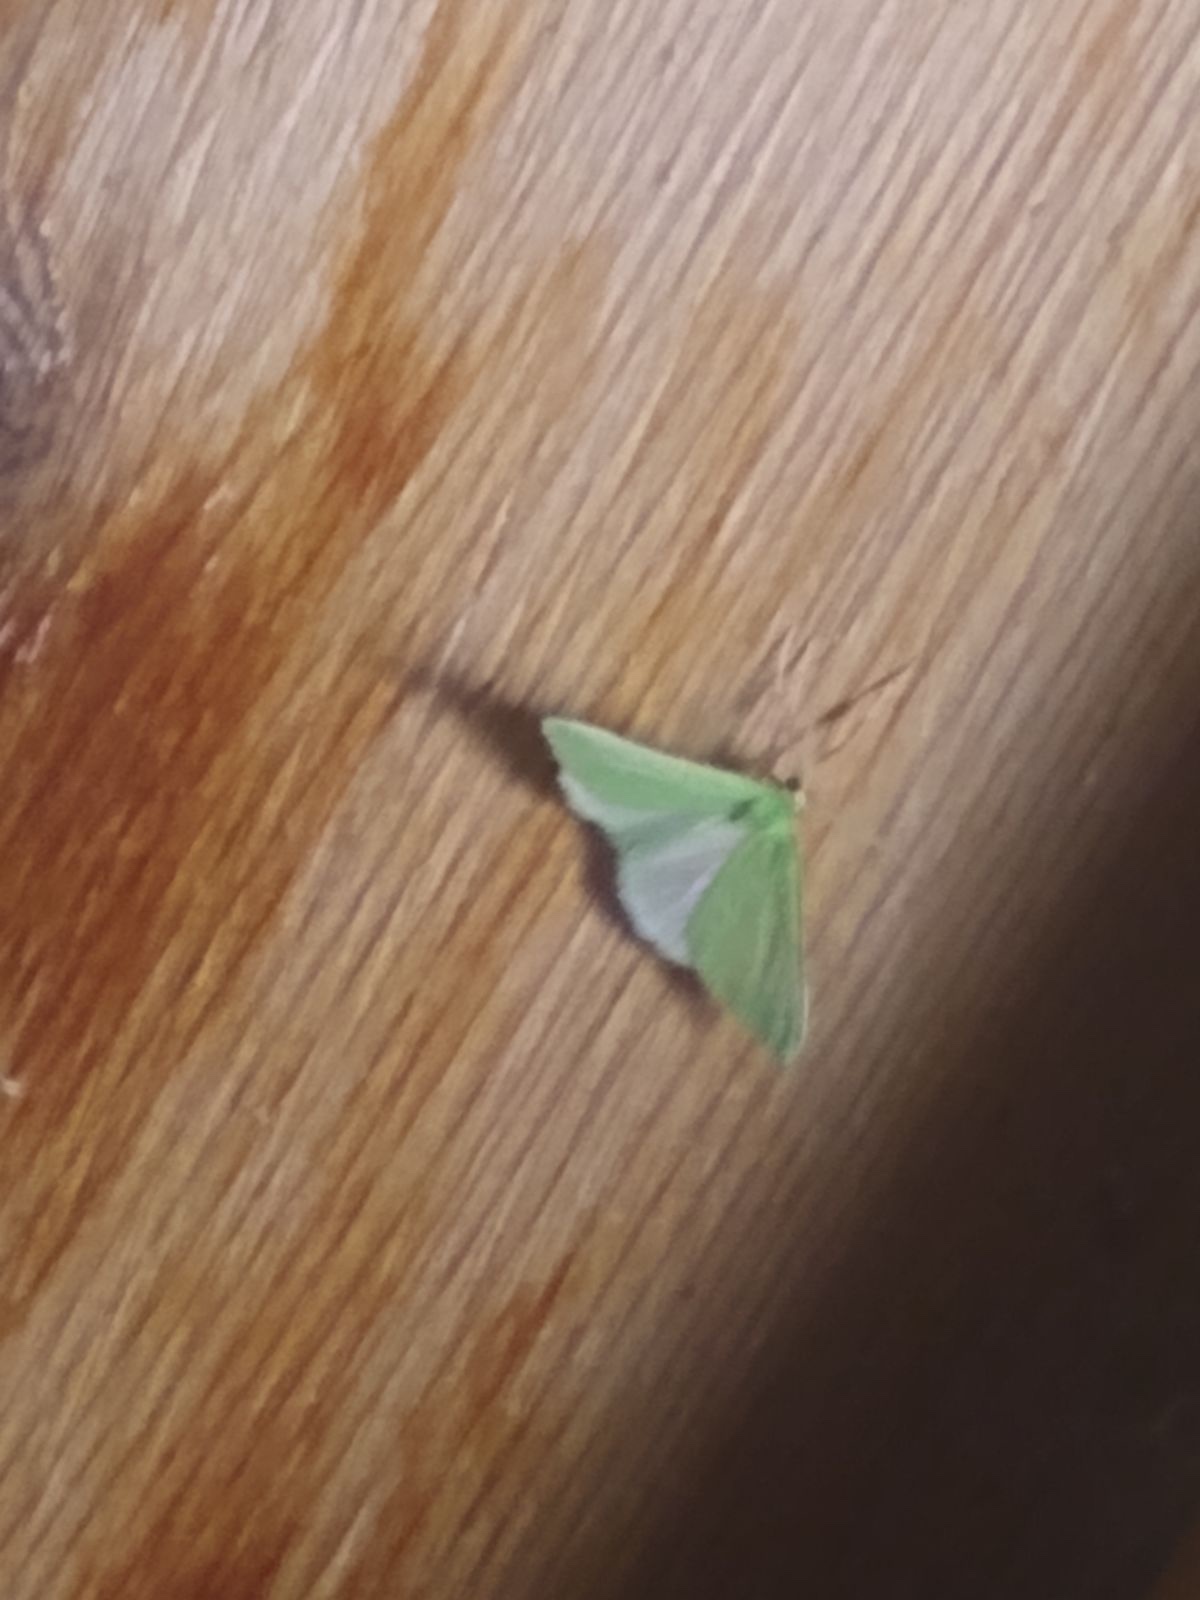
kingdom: Animalia
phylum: Arthropoda
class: Insecta
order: Lepidoptera
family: Geometridae
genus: Synchlora
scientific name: Synchlora faseolaria
